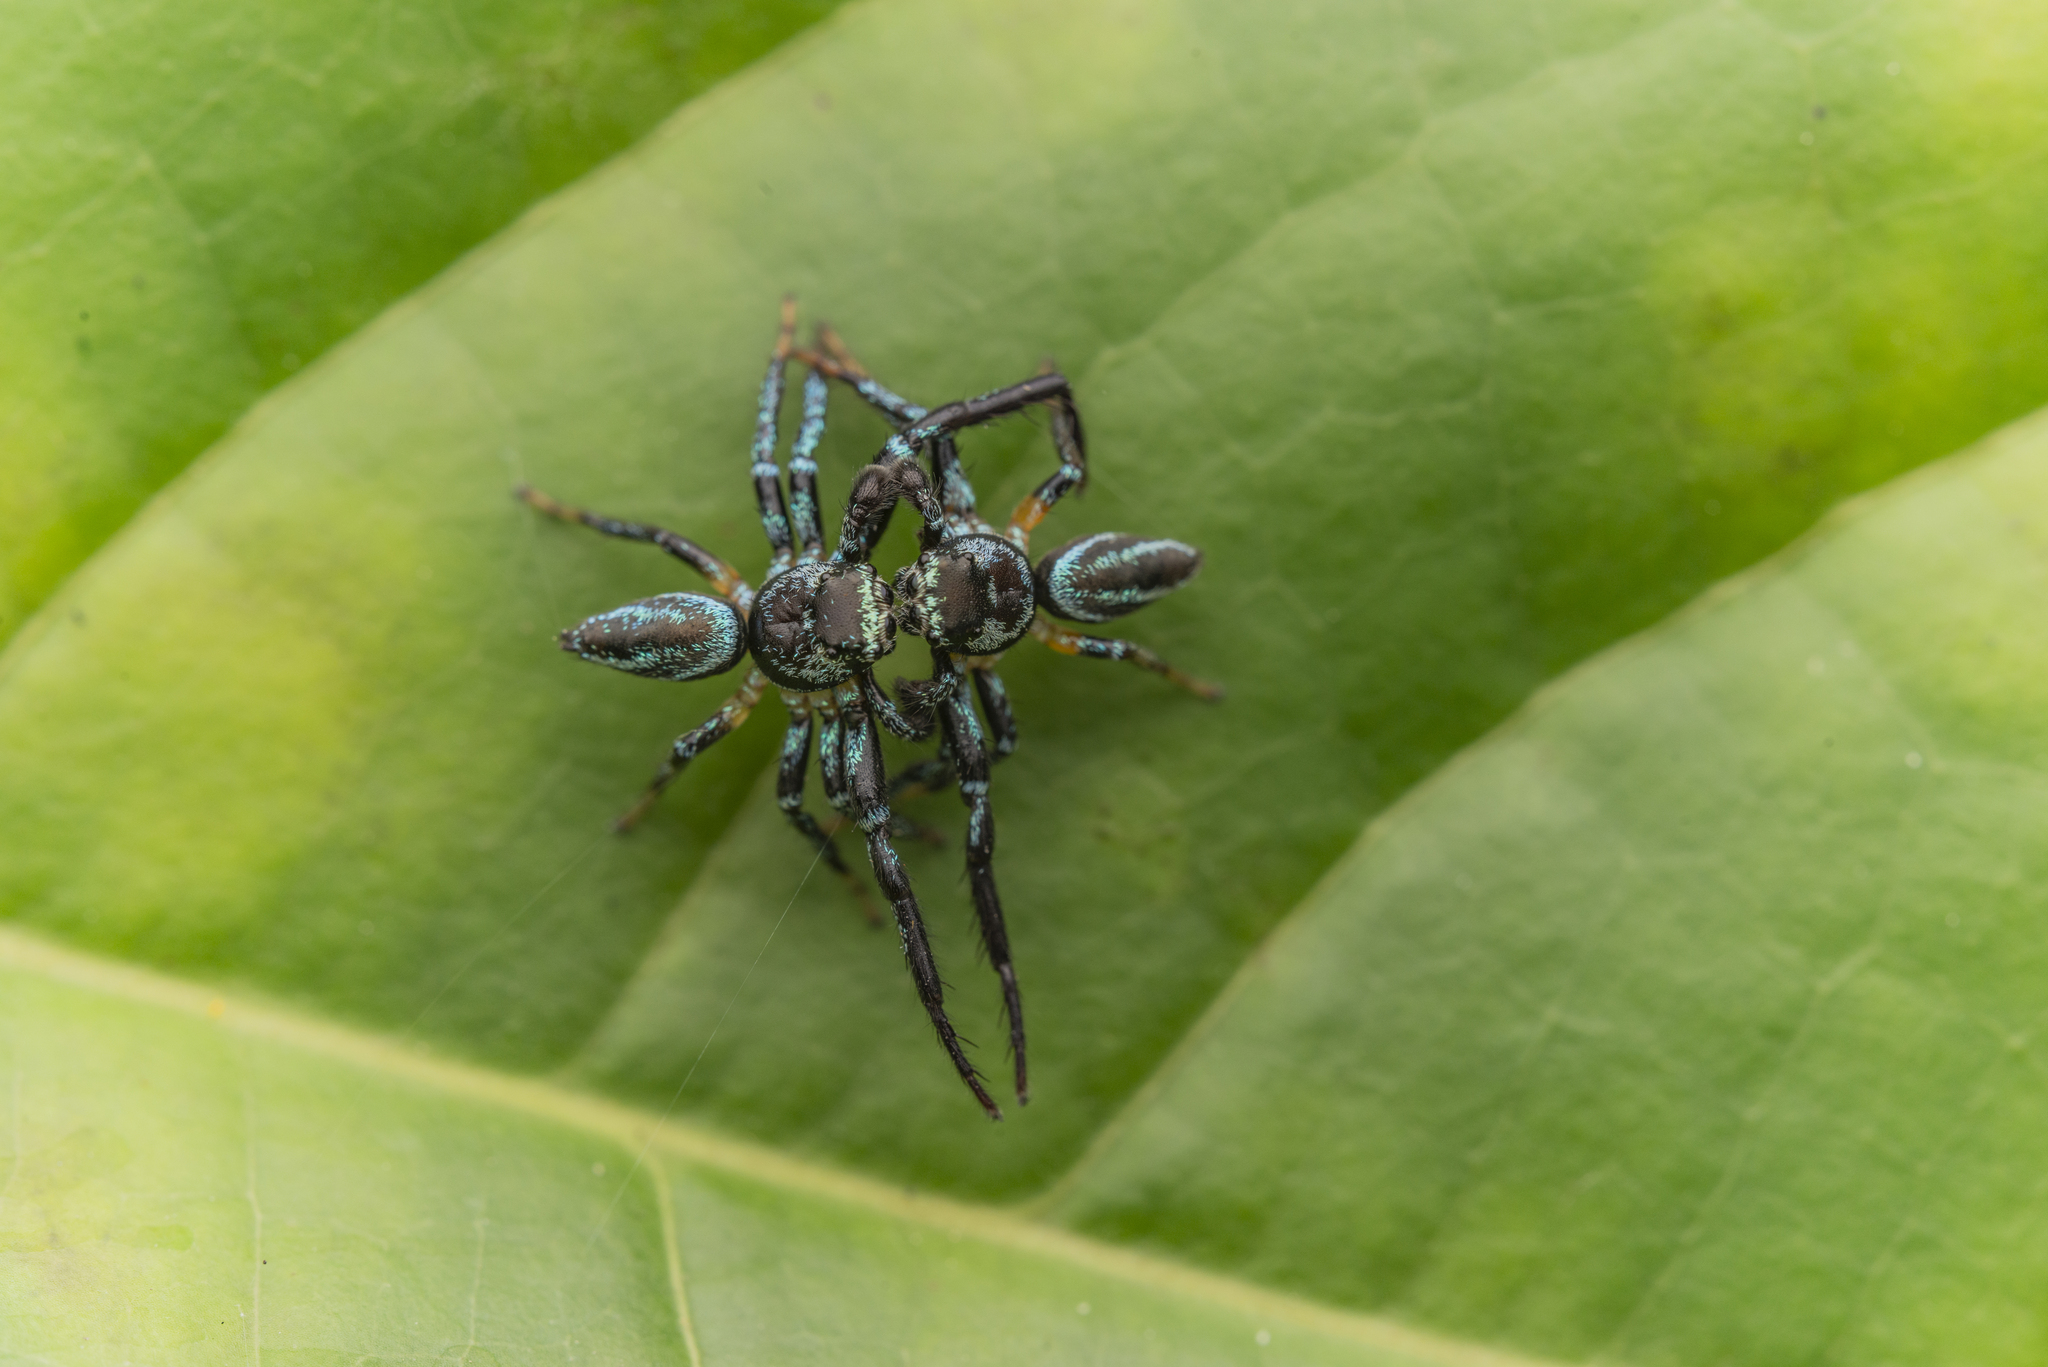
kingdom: Animalia
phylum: Arthropoda
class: Arachnida
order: Araneae
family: Salticidae
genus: Thiania
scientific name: Thiania suboppressa
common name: Jumping spider
